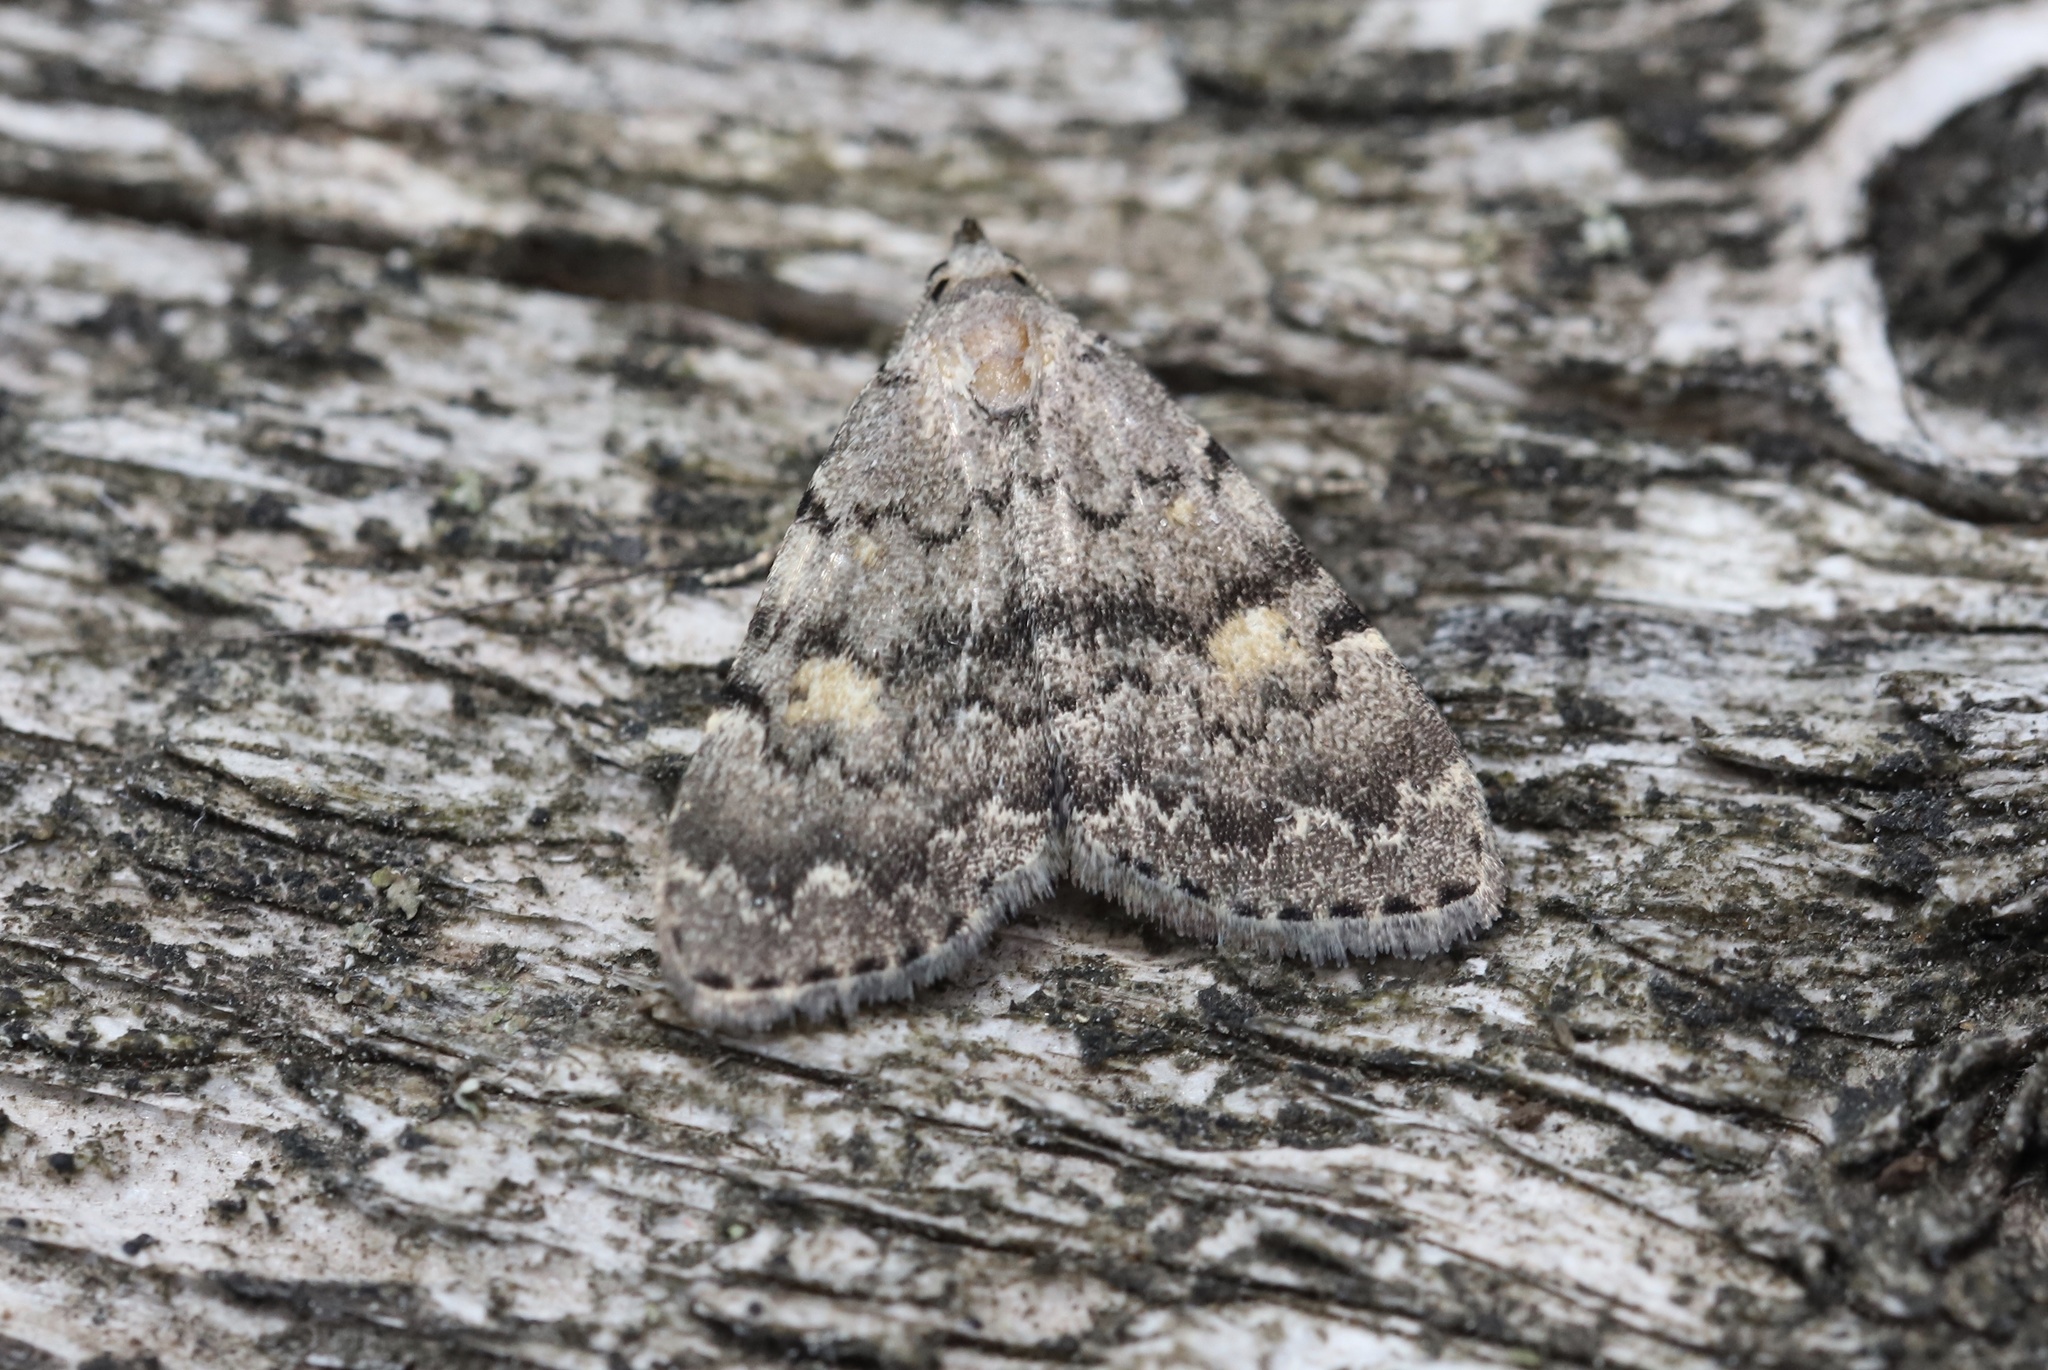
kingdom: Animalia
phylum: Arthropoda
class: Insecta
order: Lepidoptera
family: Erebidae
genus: Idia
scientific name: Idia aemula
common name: Common idia moth
